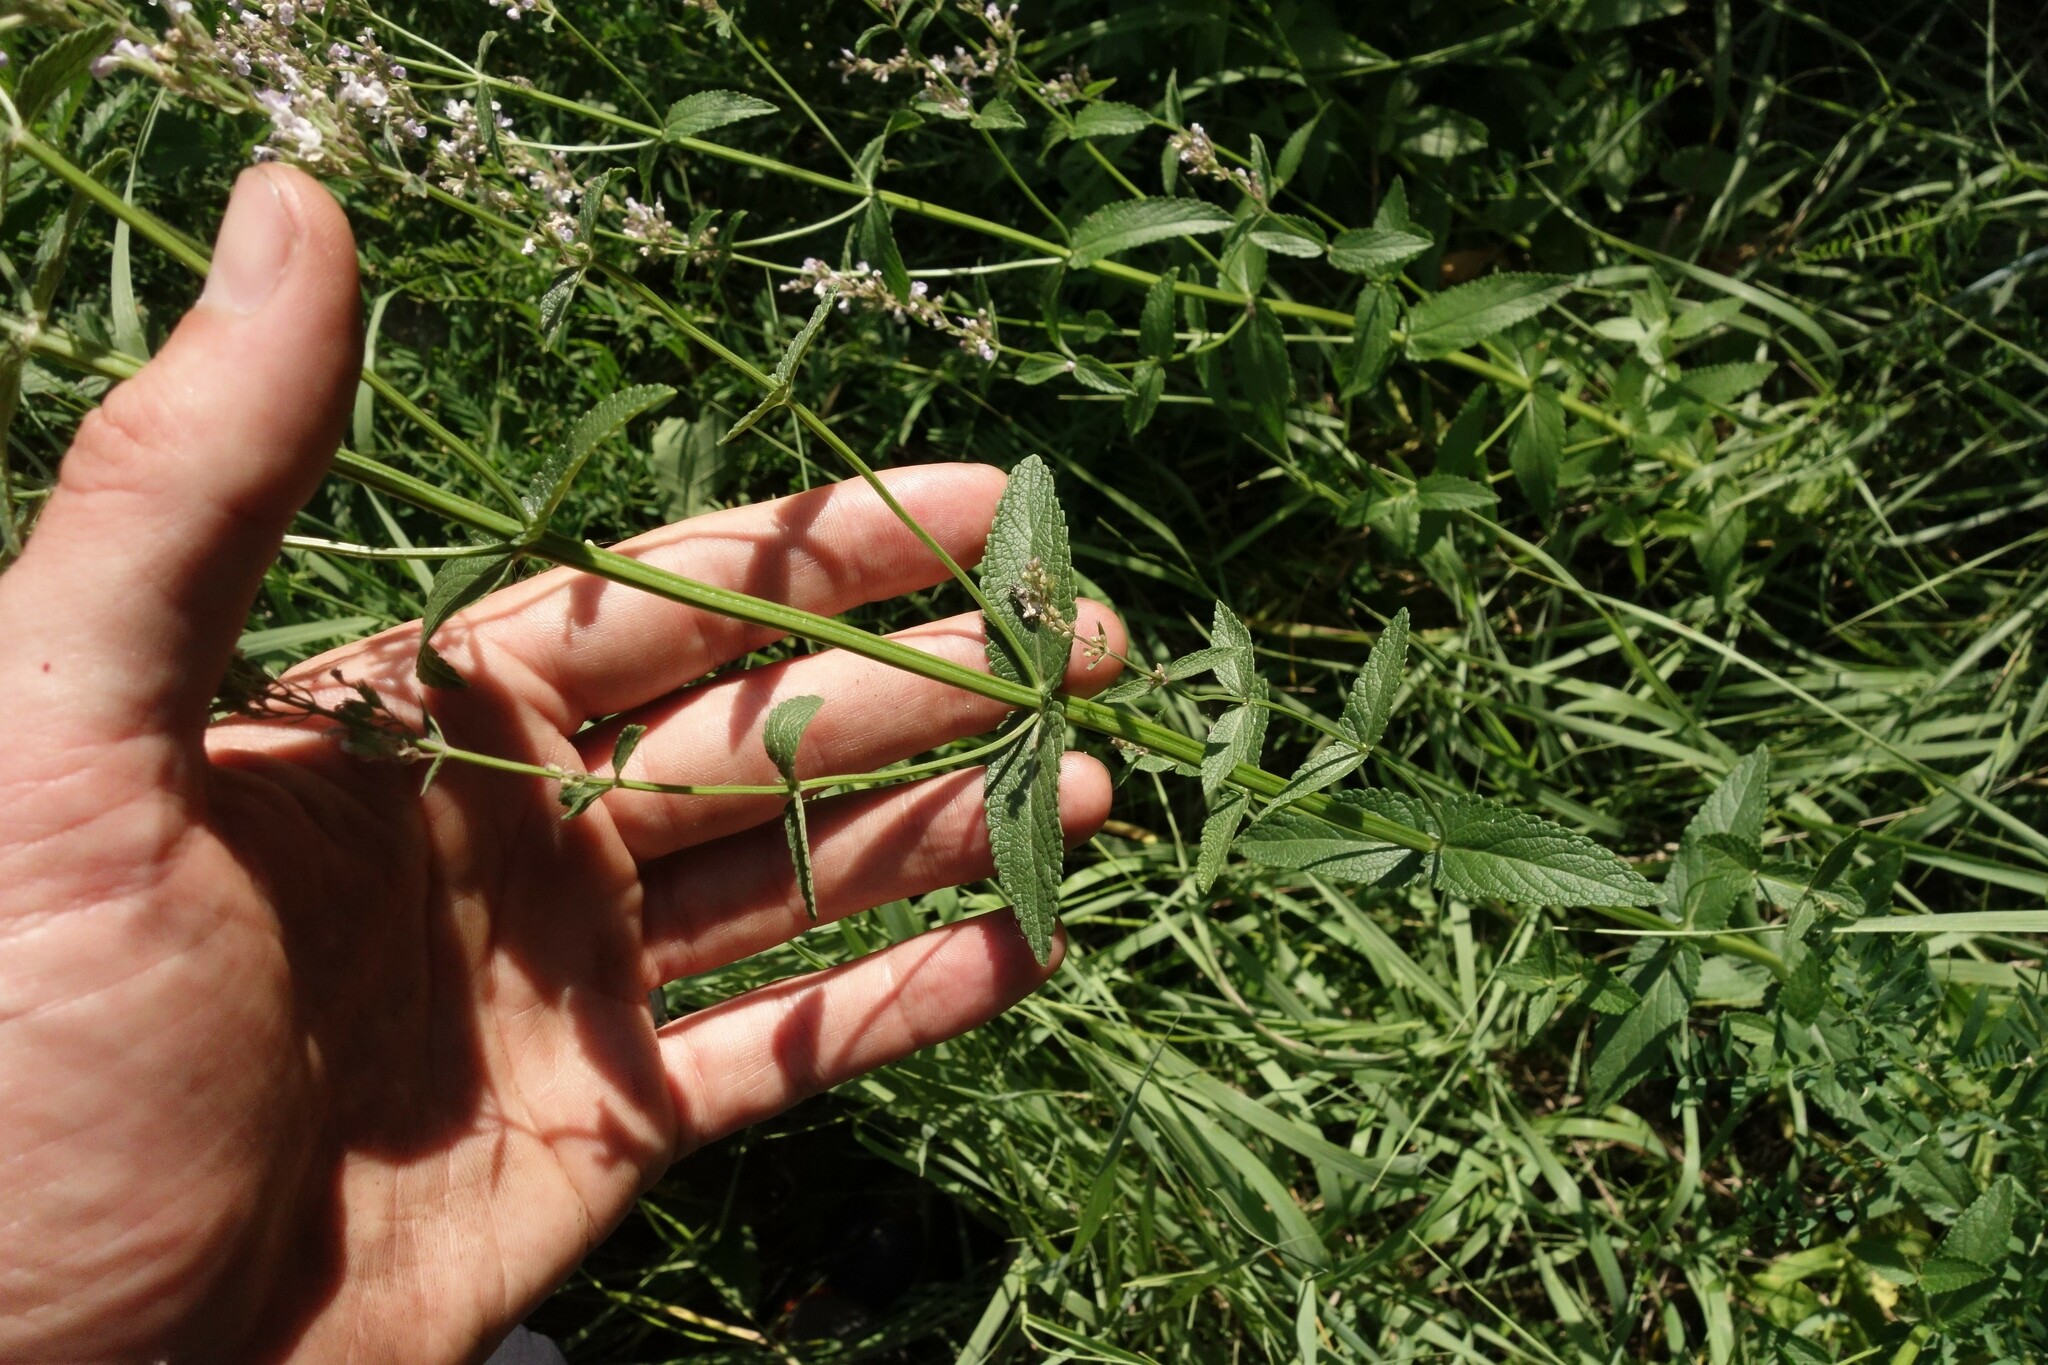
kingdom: Plantae
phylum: Tracheophyta
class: Magnoliopsida
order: Lamiales
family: Lamiaceae
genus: Nepeta
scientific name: Nepeta nuda
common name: Hairless catmint
